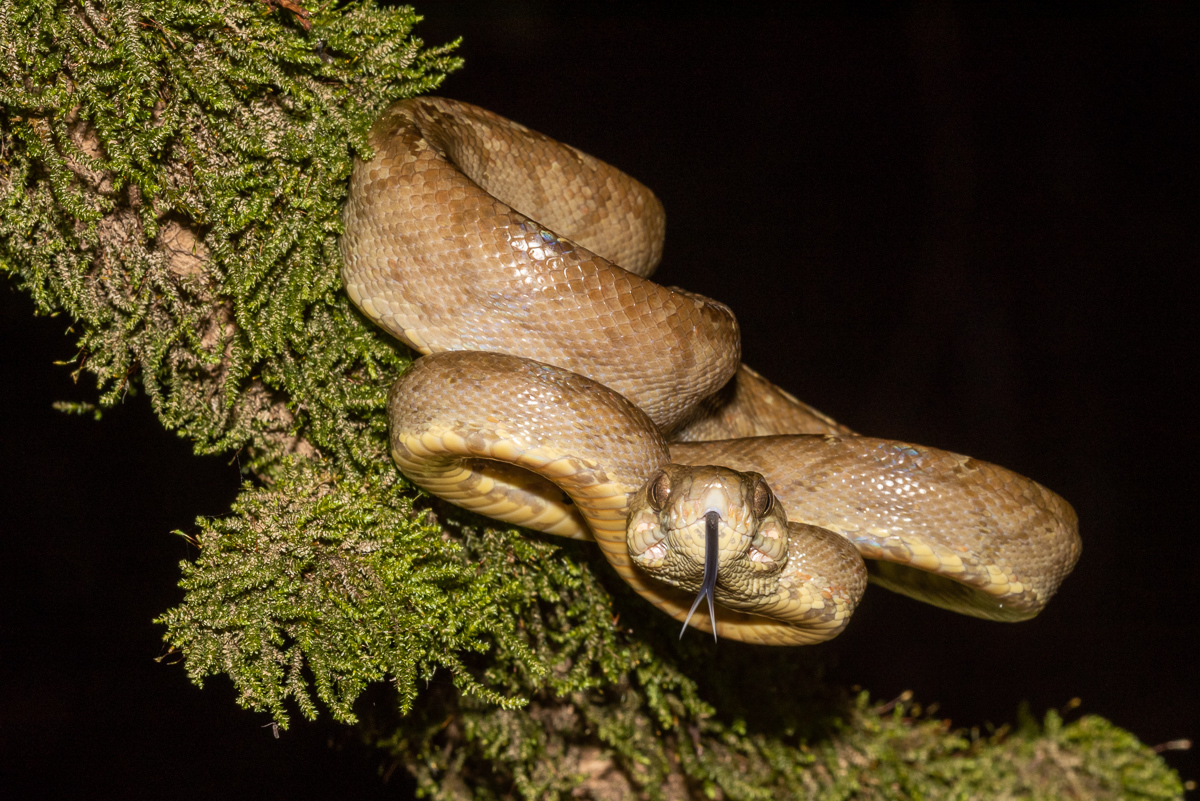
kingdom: Animalia
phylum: Chordata
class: Squamata
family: Boidae
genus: Corallus
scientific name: Corallus hortulana
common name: Garden tree boa
